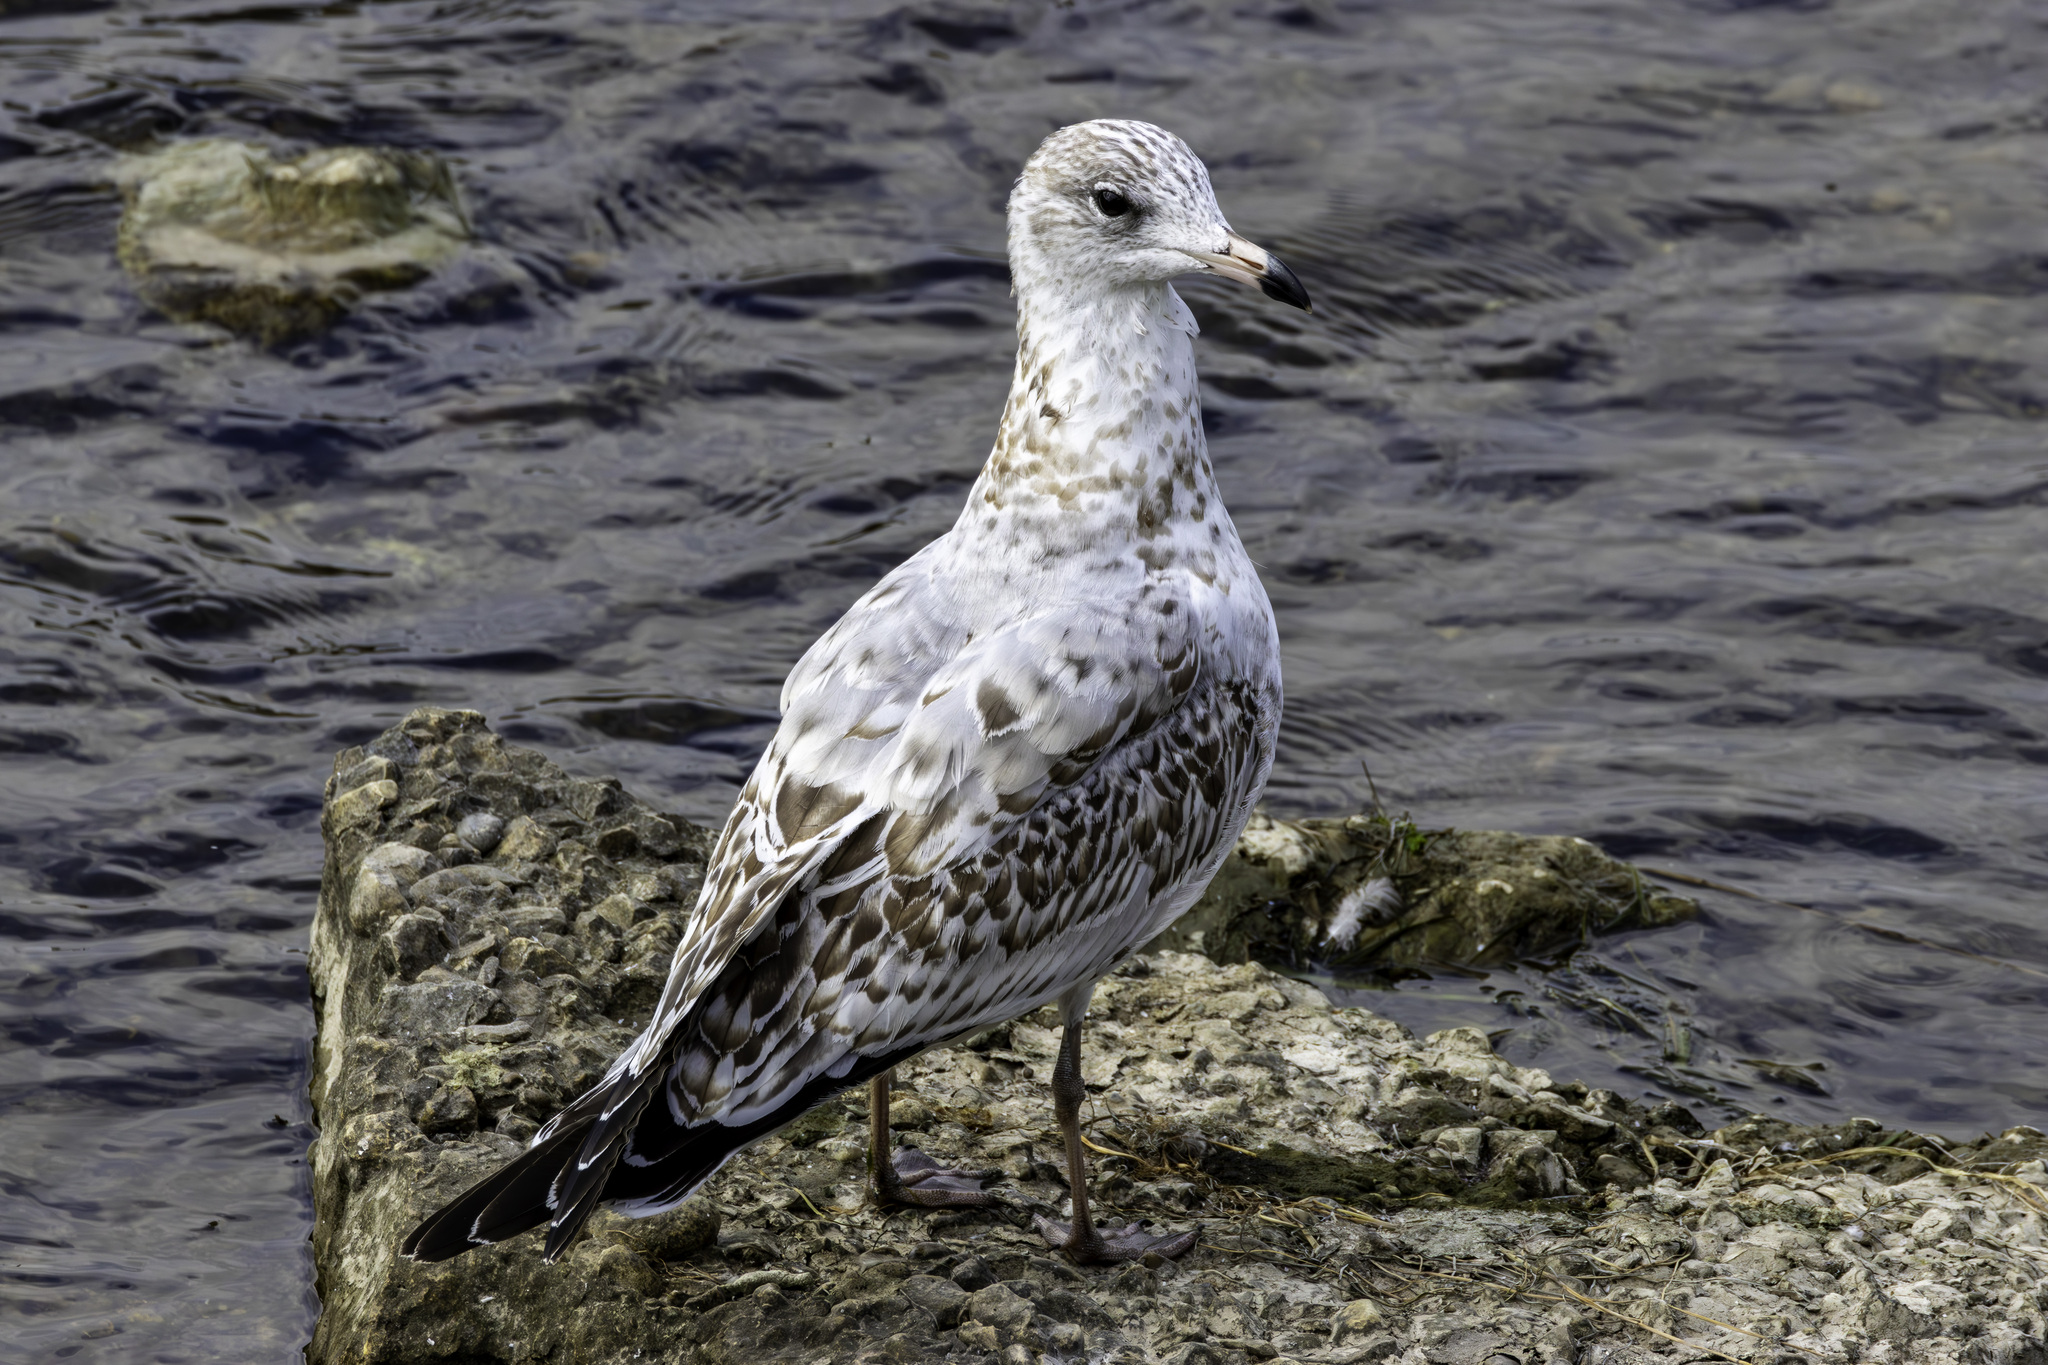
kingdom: Animalia
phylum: Chordata
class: Aves
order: Charadriiformes
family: Laridae
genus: Larus
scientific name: Larus delawarensis
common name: Ring-billed gull
